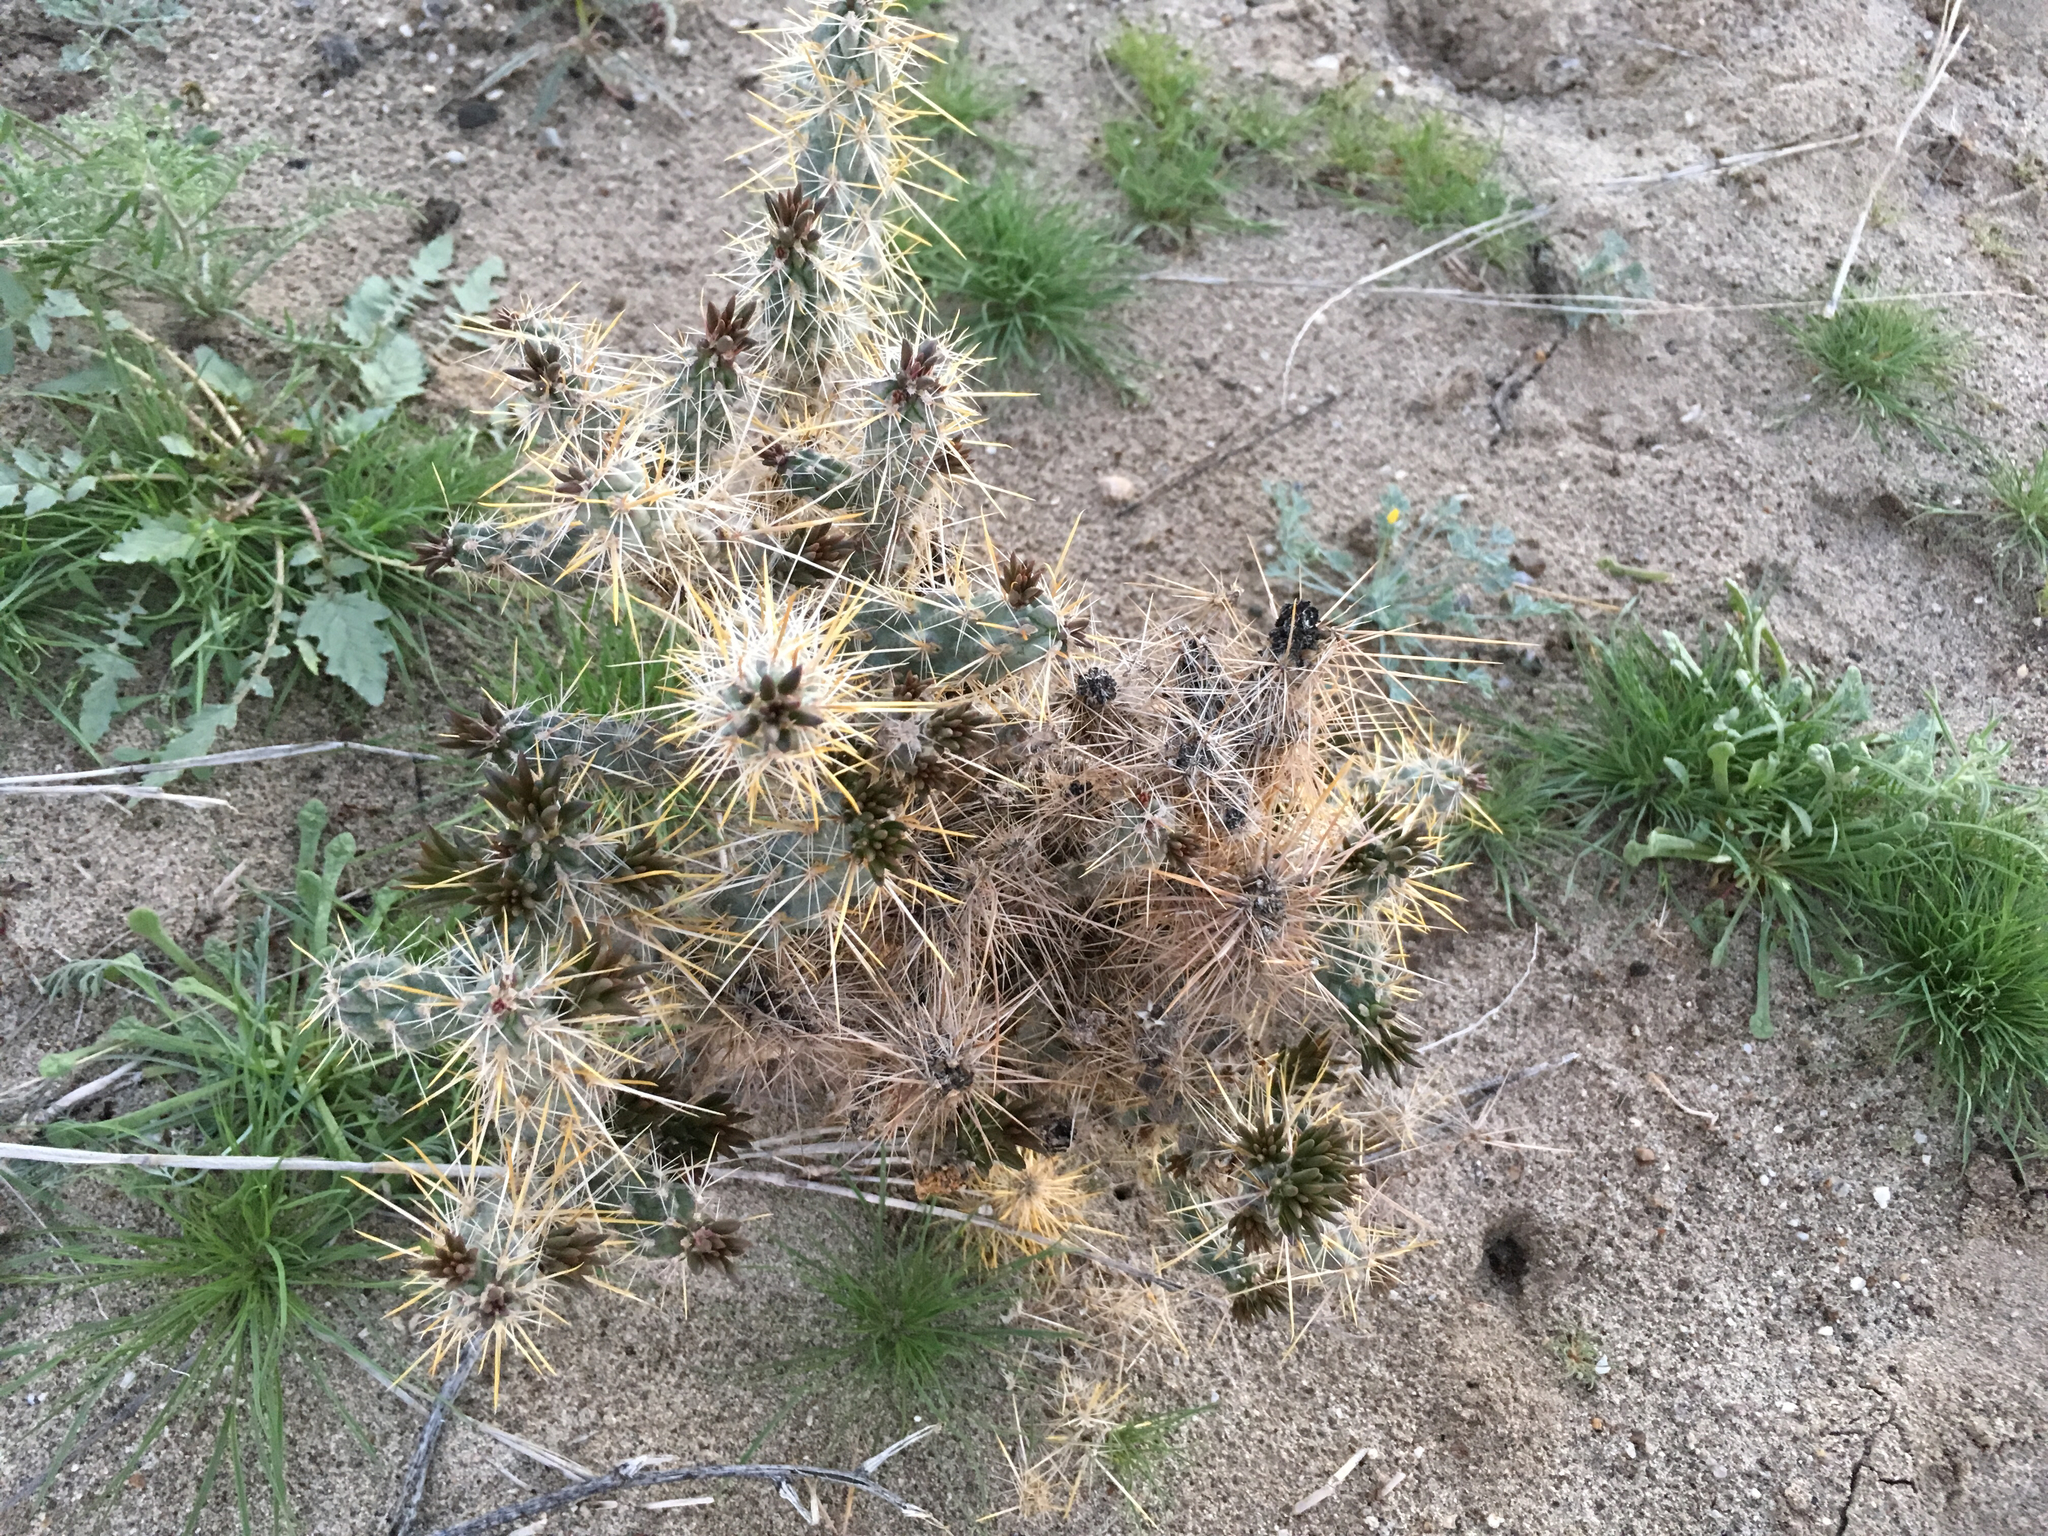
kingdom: Plantae
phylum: Tracheophyta
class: Magnoliopsida
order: Caryophyllales
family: Cactaceae
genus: Cylindropuntia
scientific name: Cylindropuntia echinocarpa
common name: Ground cholla
